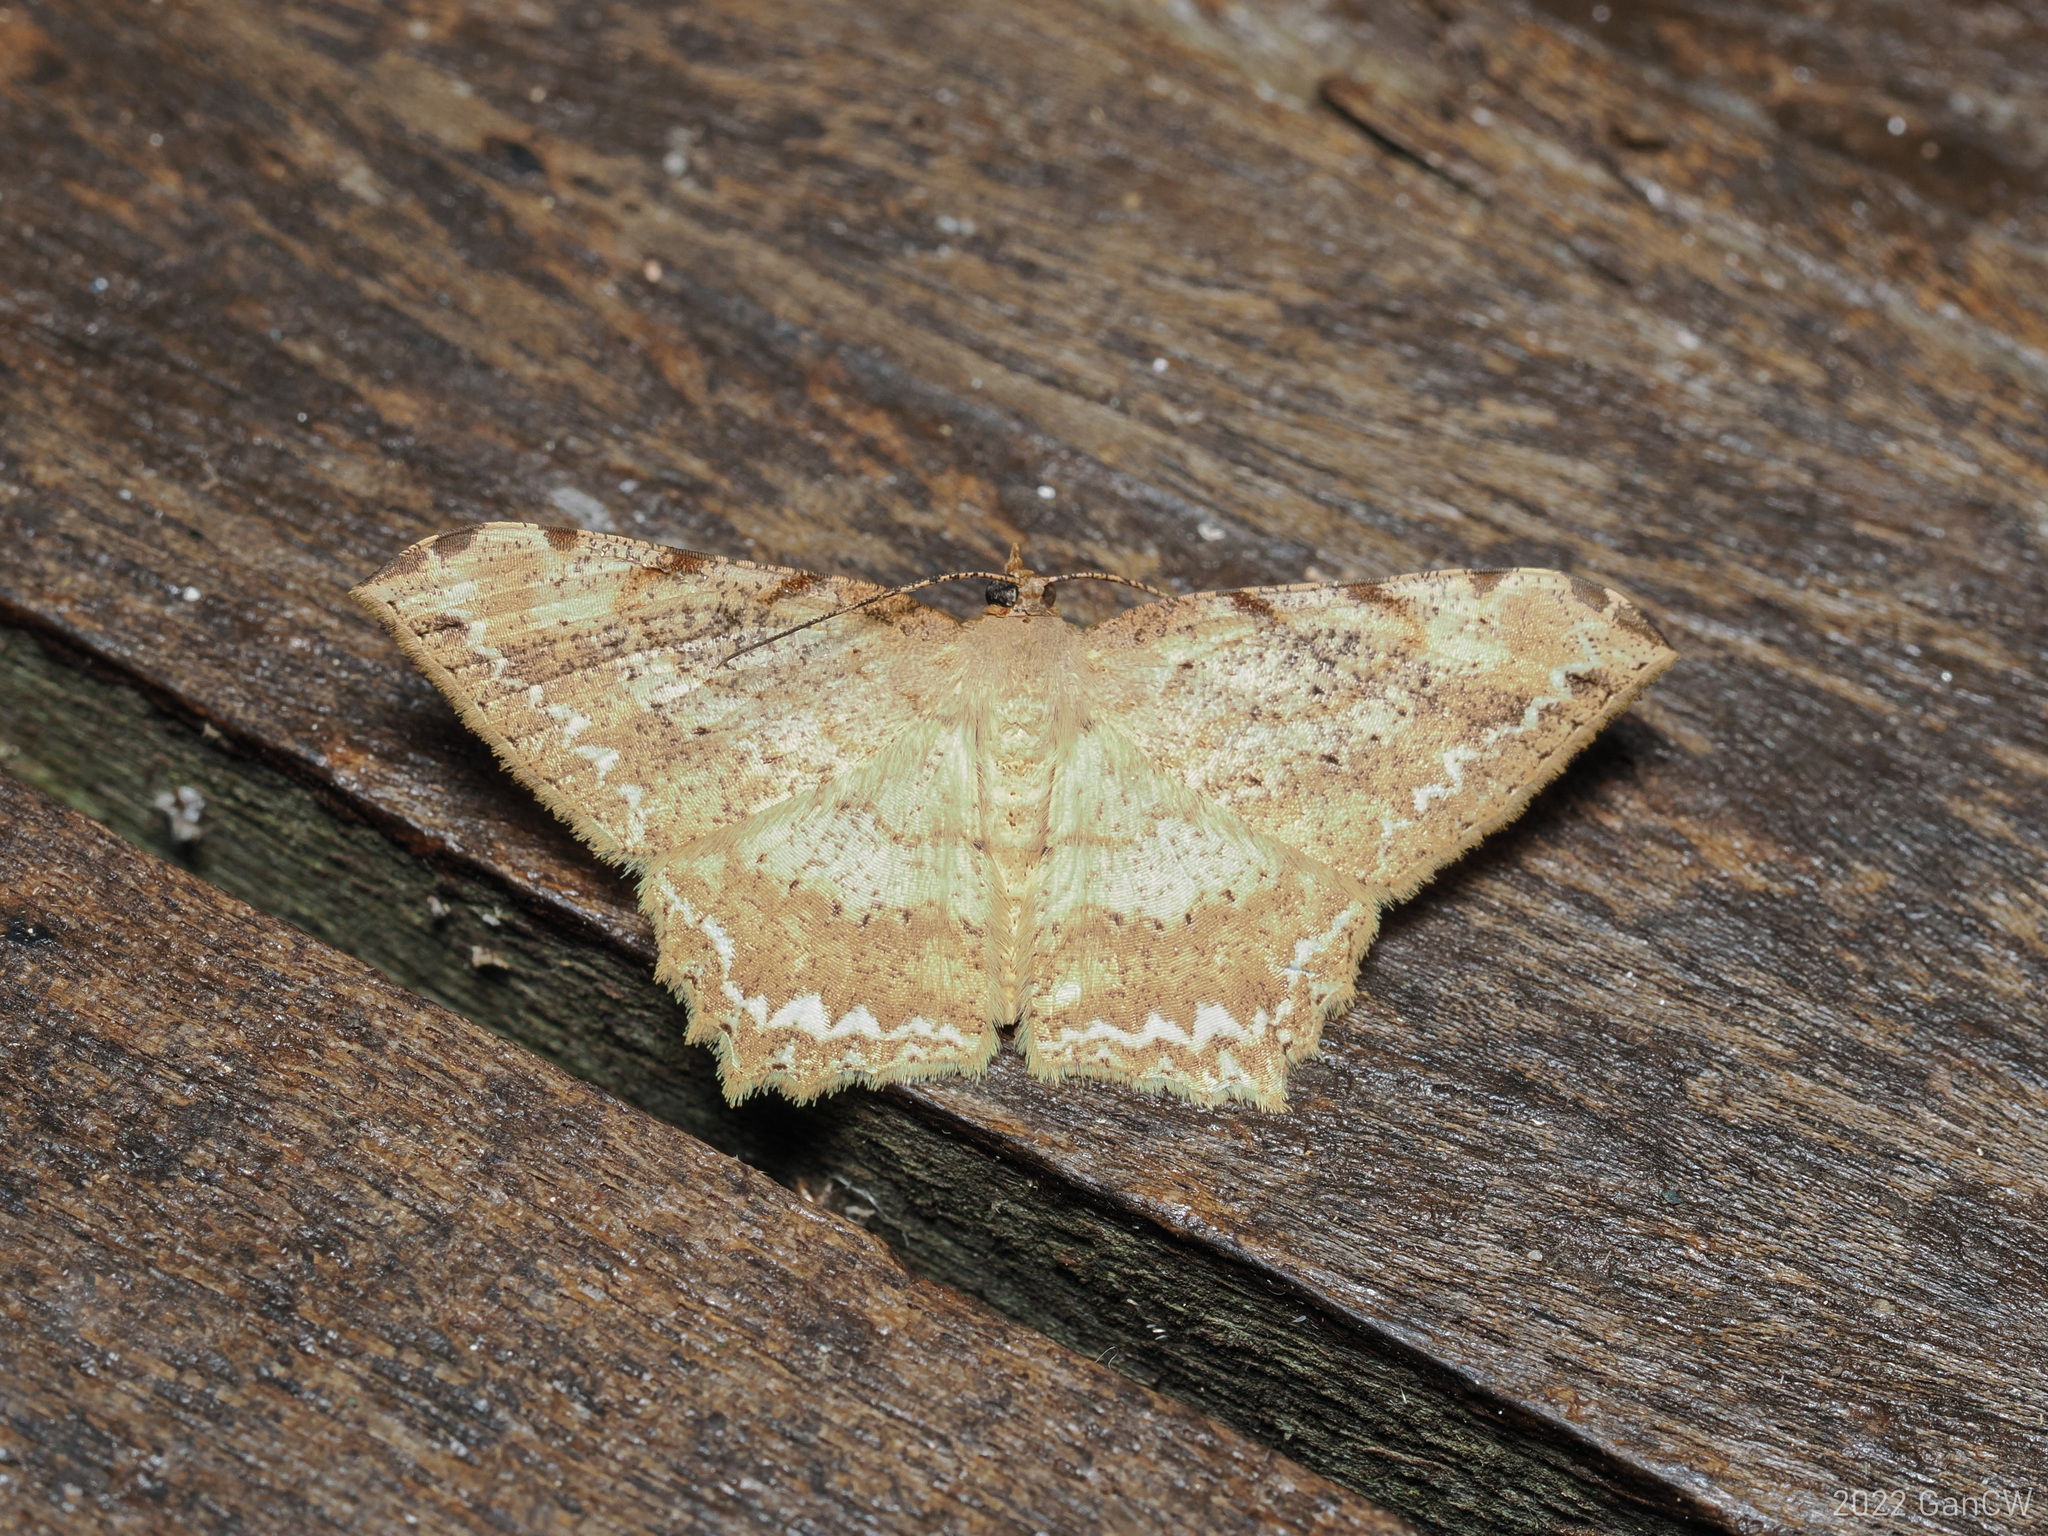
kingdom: Animalia
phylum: Arthropoda
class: Insecta
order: Lepidoptera
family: Geometridae
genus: Calletaera
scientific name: Calletaera jotaria
